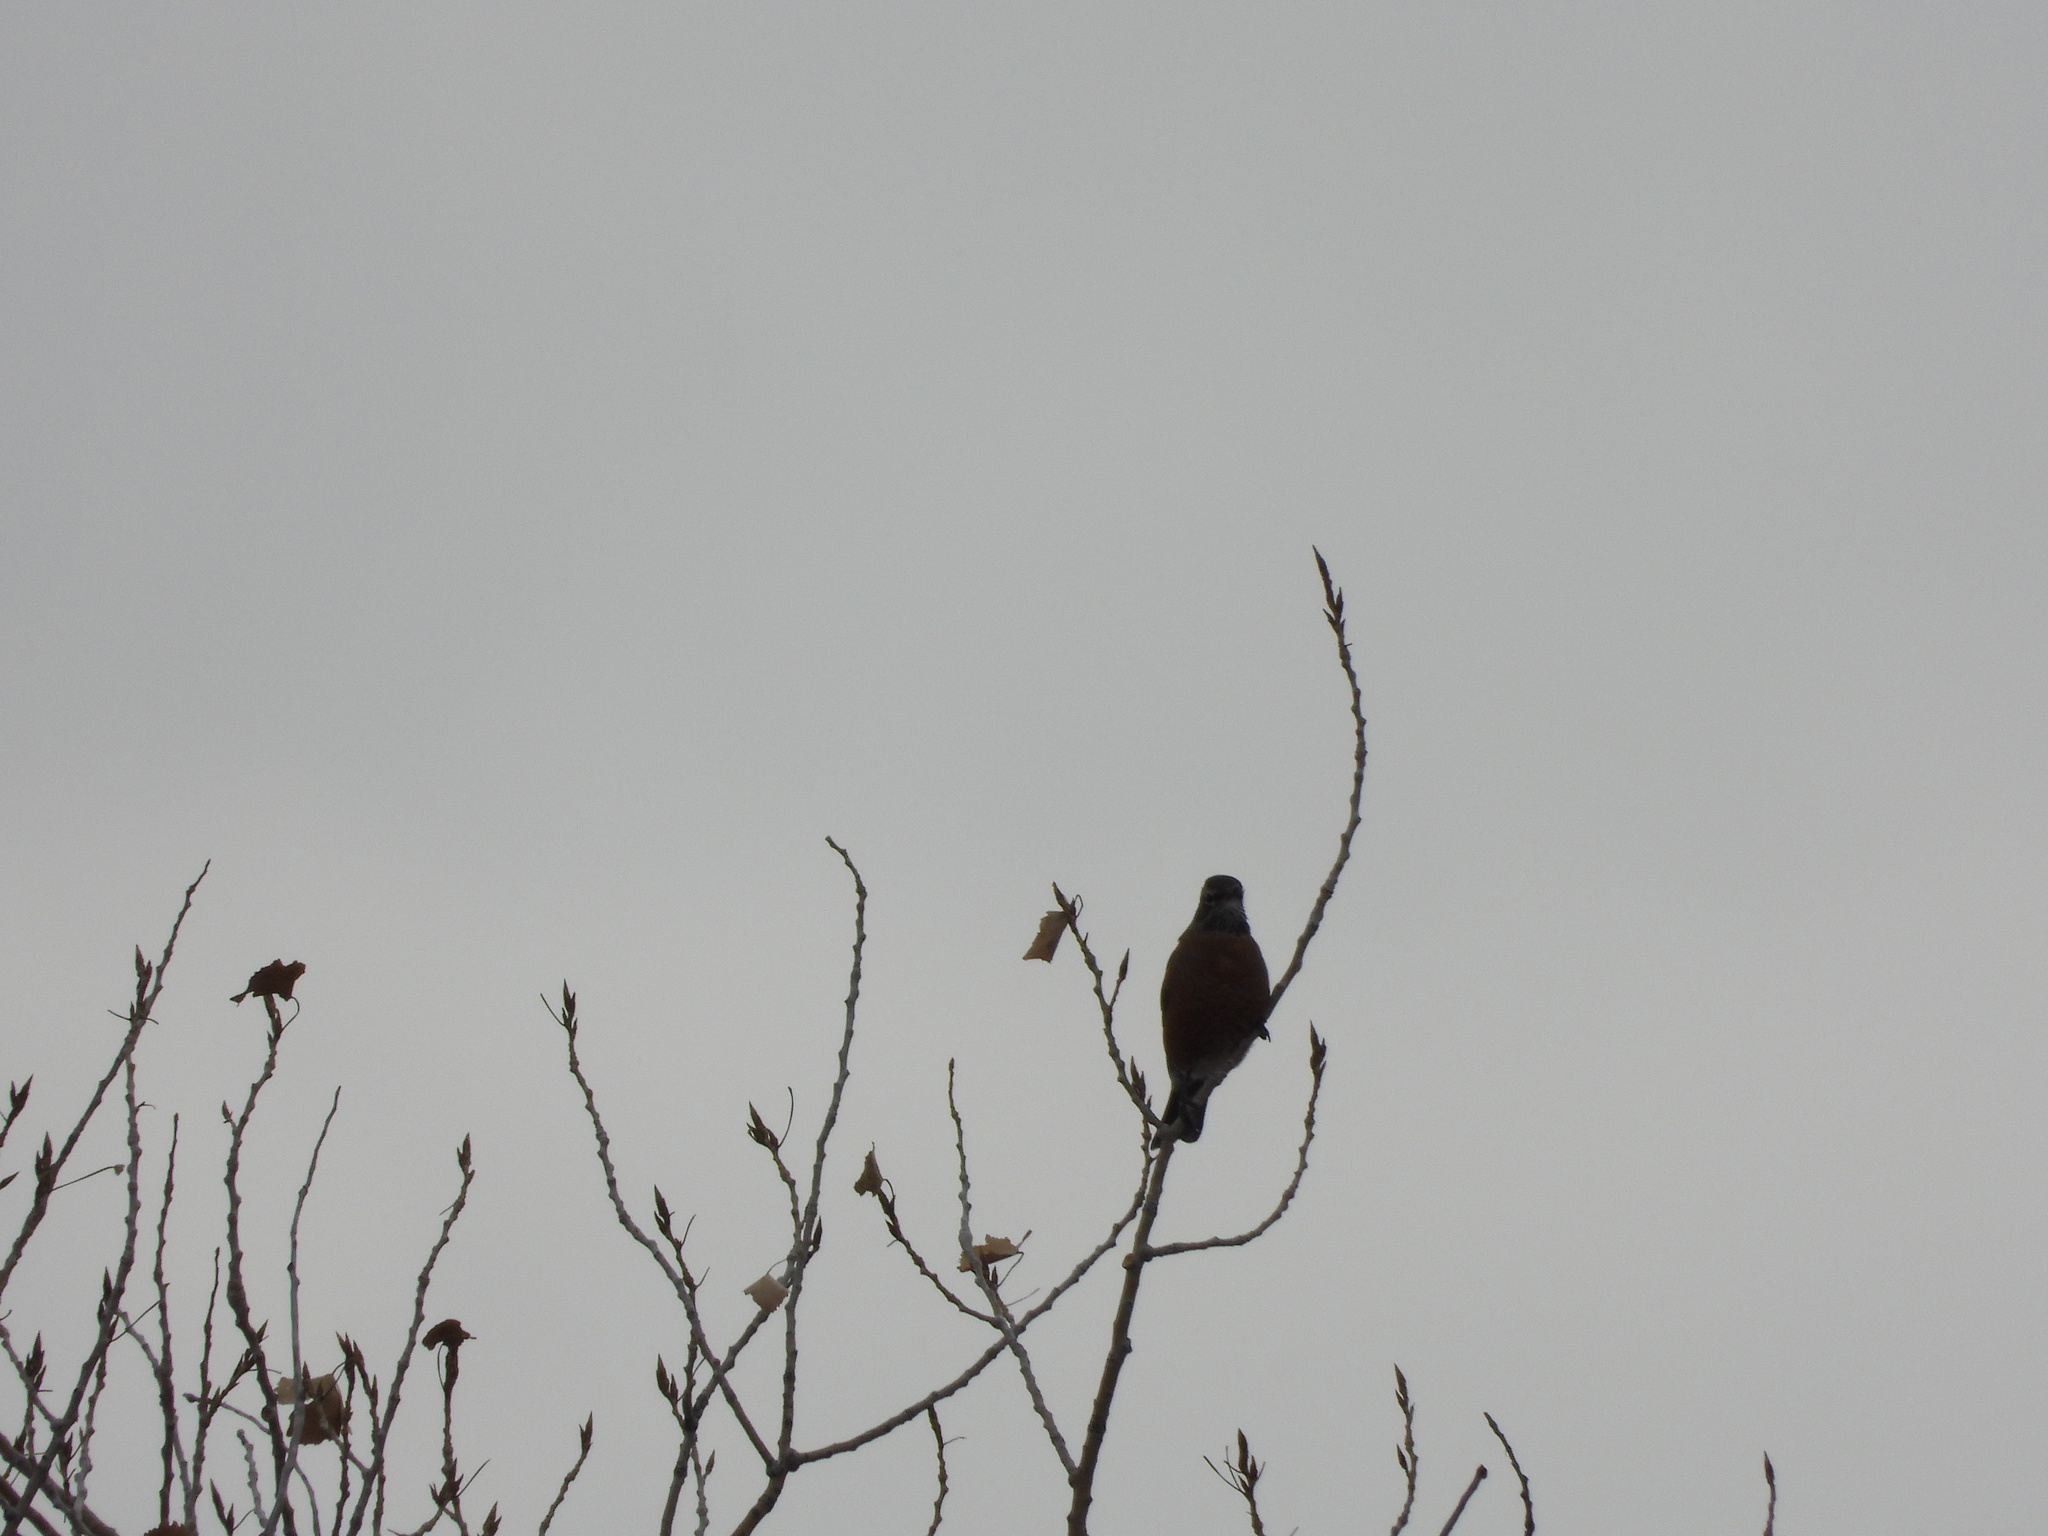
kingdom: Animalia
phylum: Chordata
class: Aves
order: Passeriformes
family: Turdidae
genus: Turdus
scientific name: Turdus migratorius
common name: American robin
